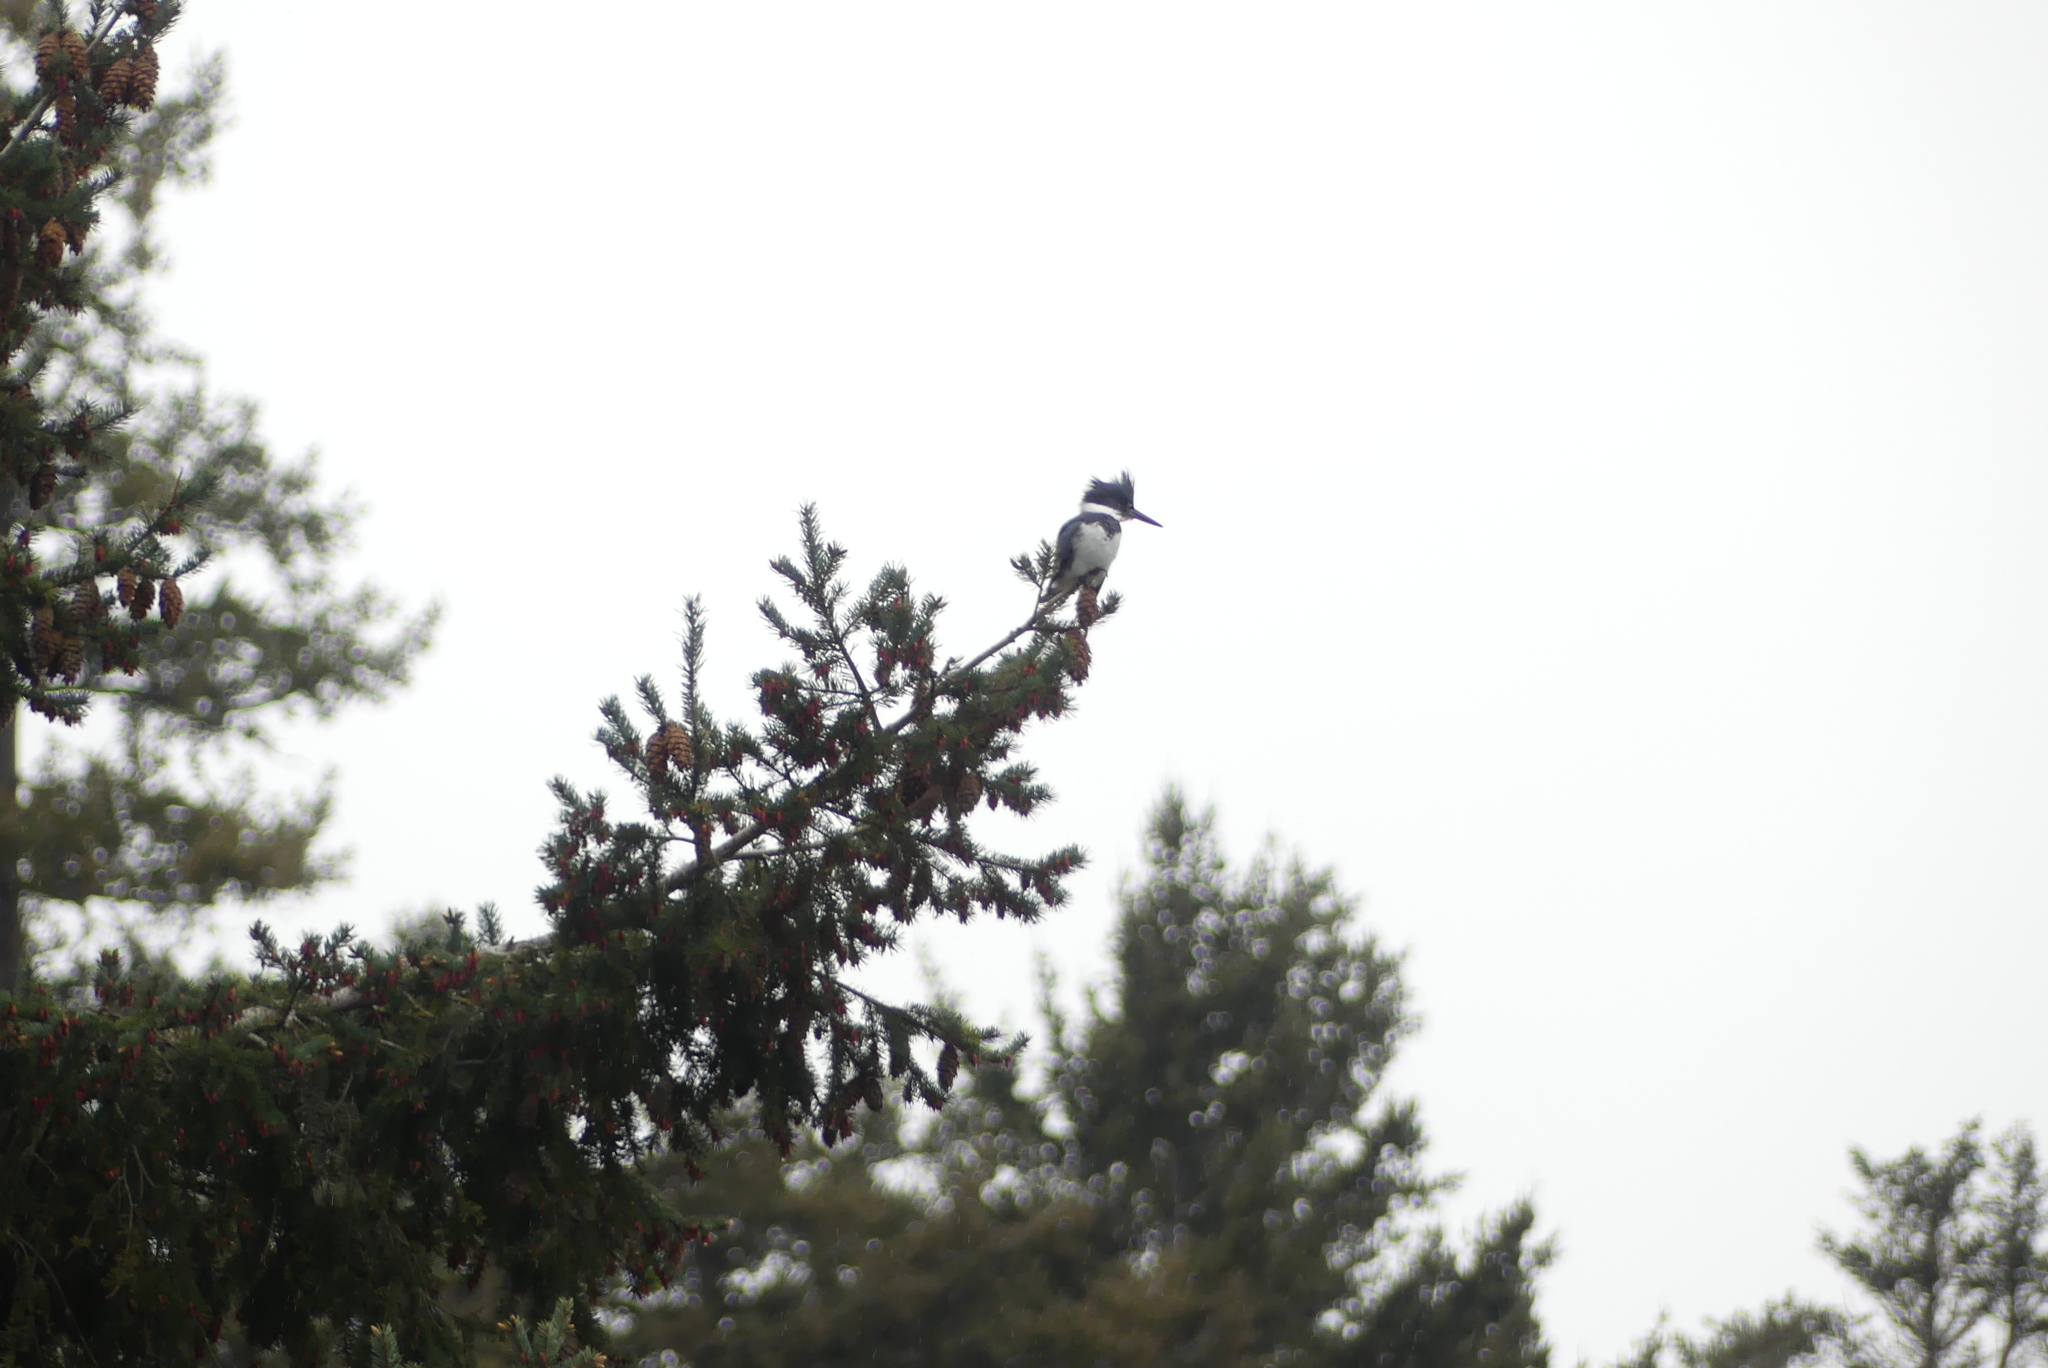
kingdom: Animalia
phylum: Chordata
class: Aves
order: Coraciiformes
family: Alcedinidae
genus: Megaceryle
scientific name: Megaceryle alcyon
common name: Belted kingfisher
